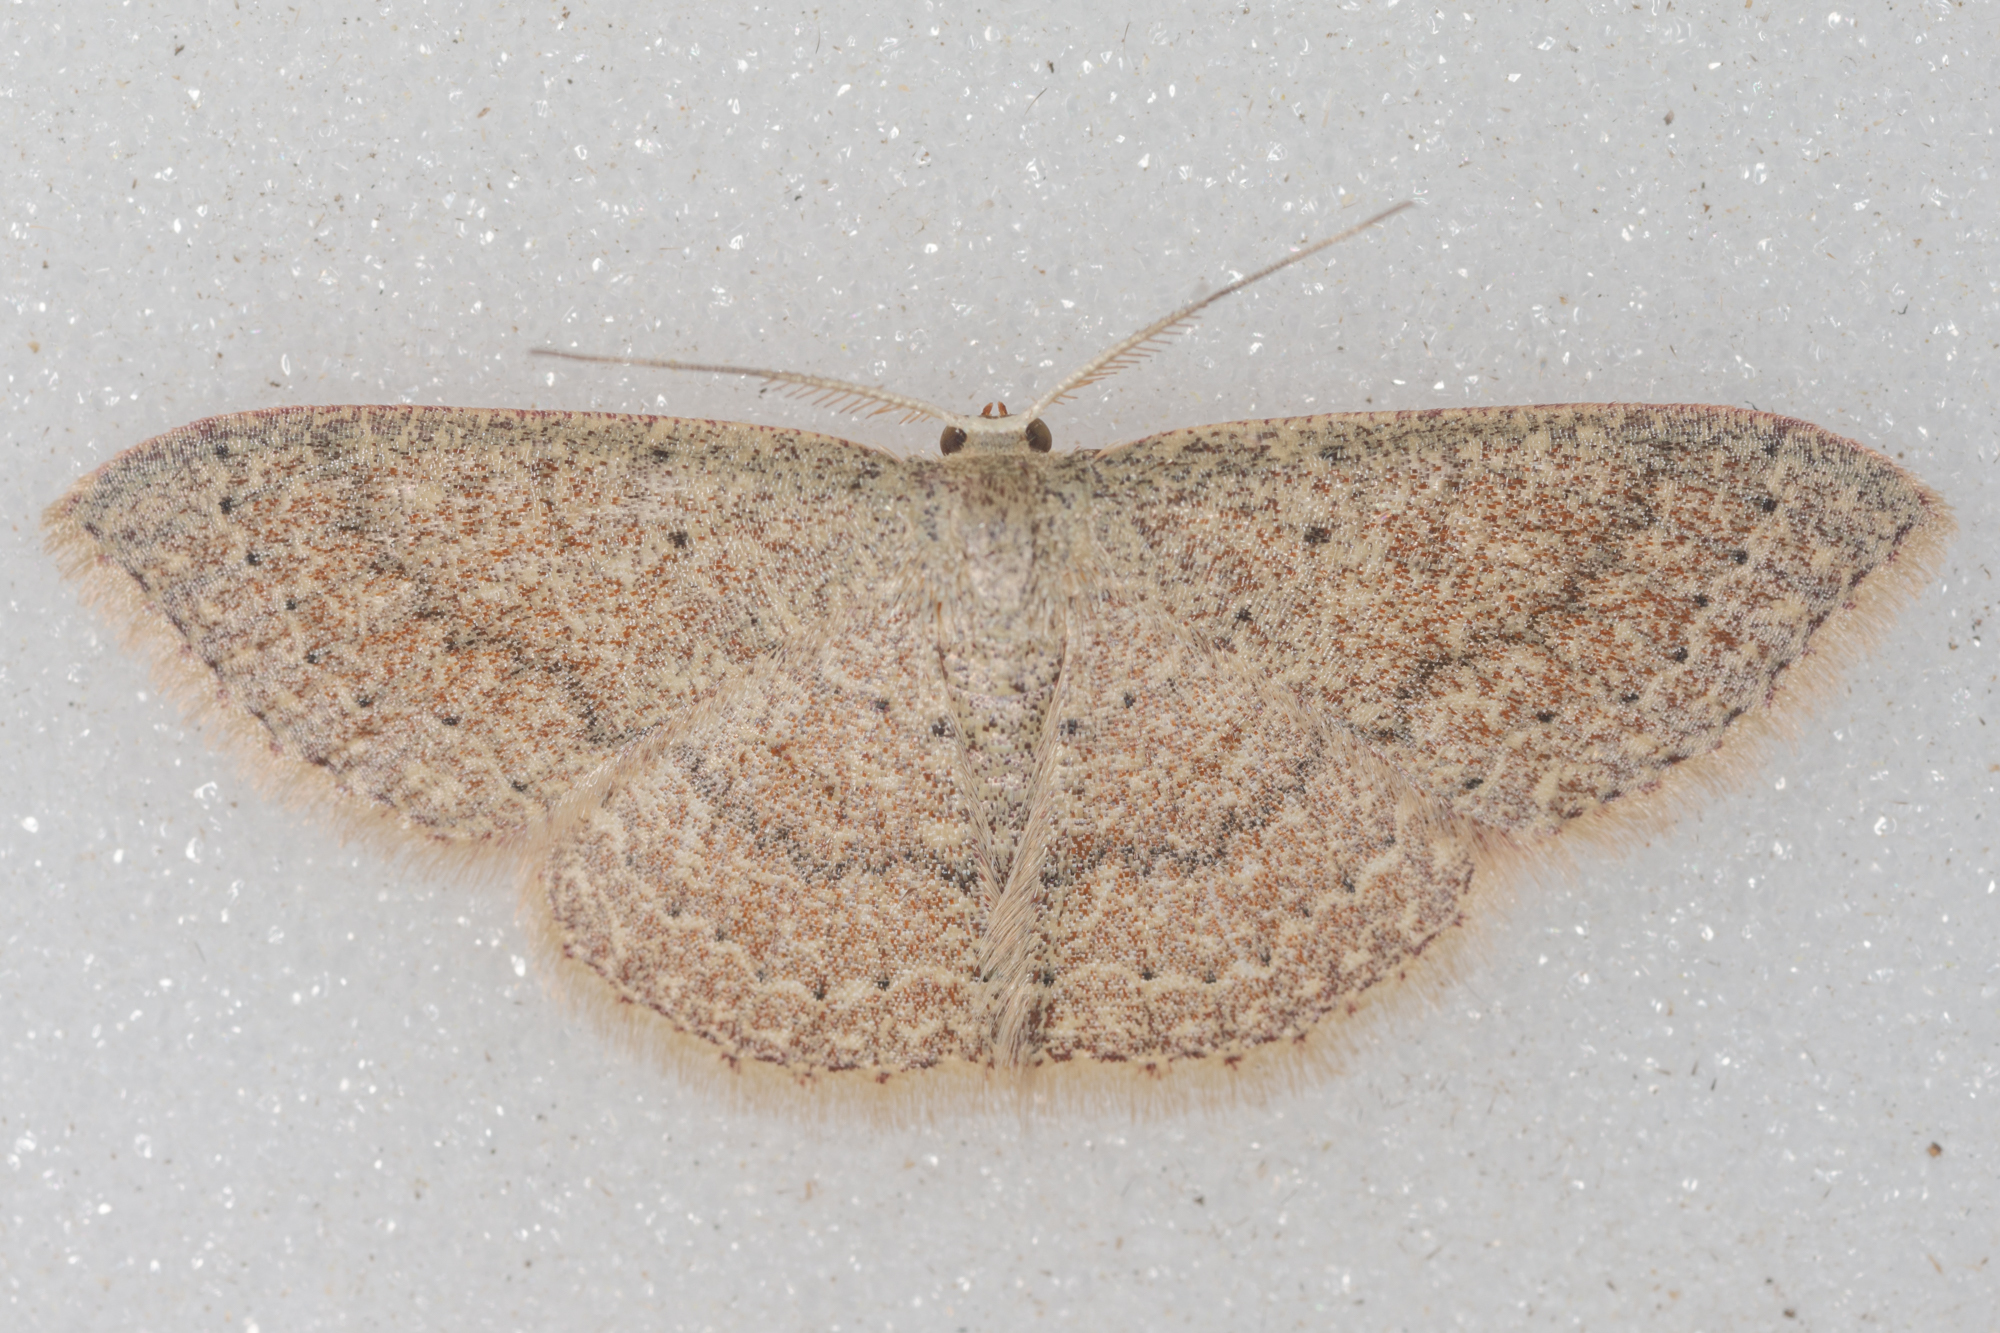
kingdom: Animalia
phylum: Arthropoda
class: Insecta
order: Lepidoptera
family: Geometridae
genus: Pleuroprucha
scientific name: Pleuroprucha insulsaria
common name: Common tan wave
